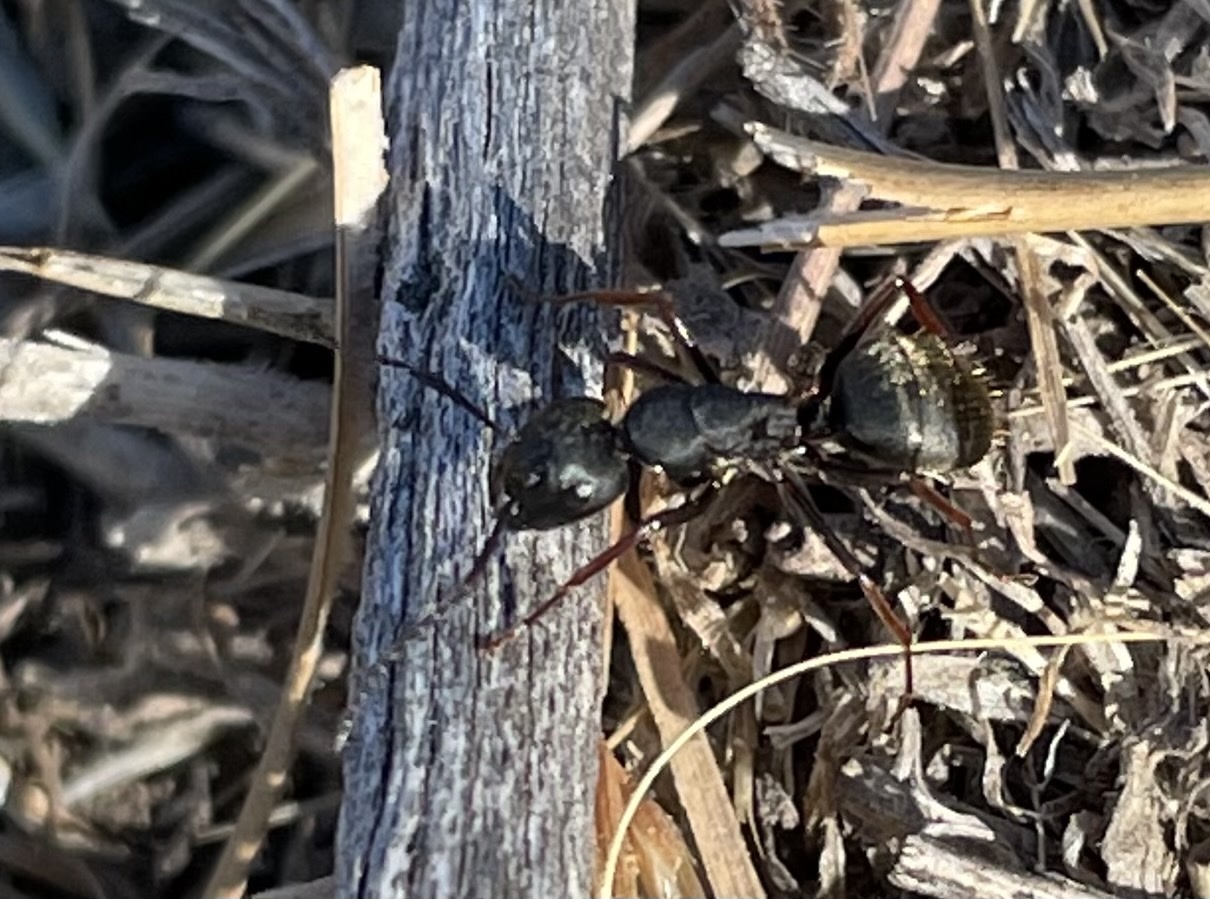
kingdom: Animalia
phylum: Arthropoda
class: Insecta
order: Hymenoptera
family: Formicidae
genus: Camponotus
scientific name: Camponotus modoc
